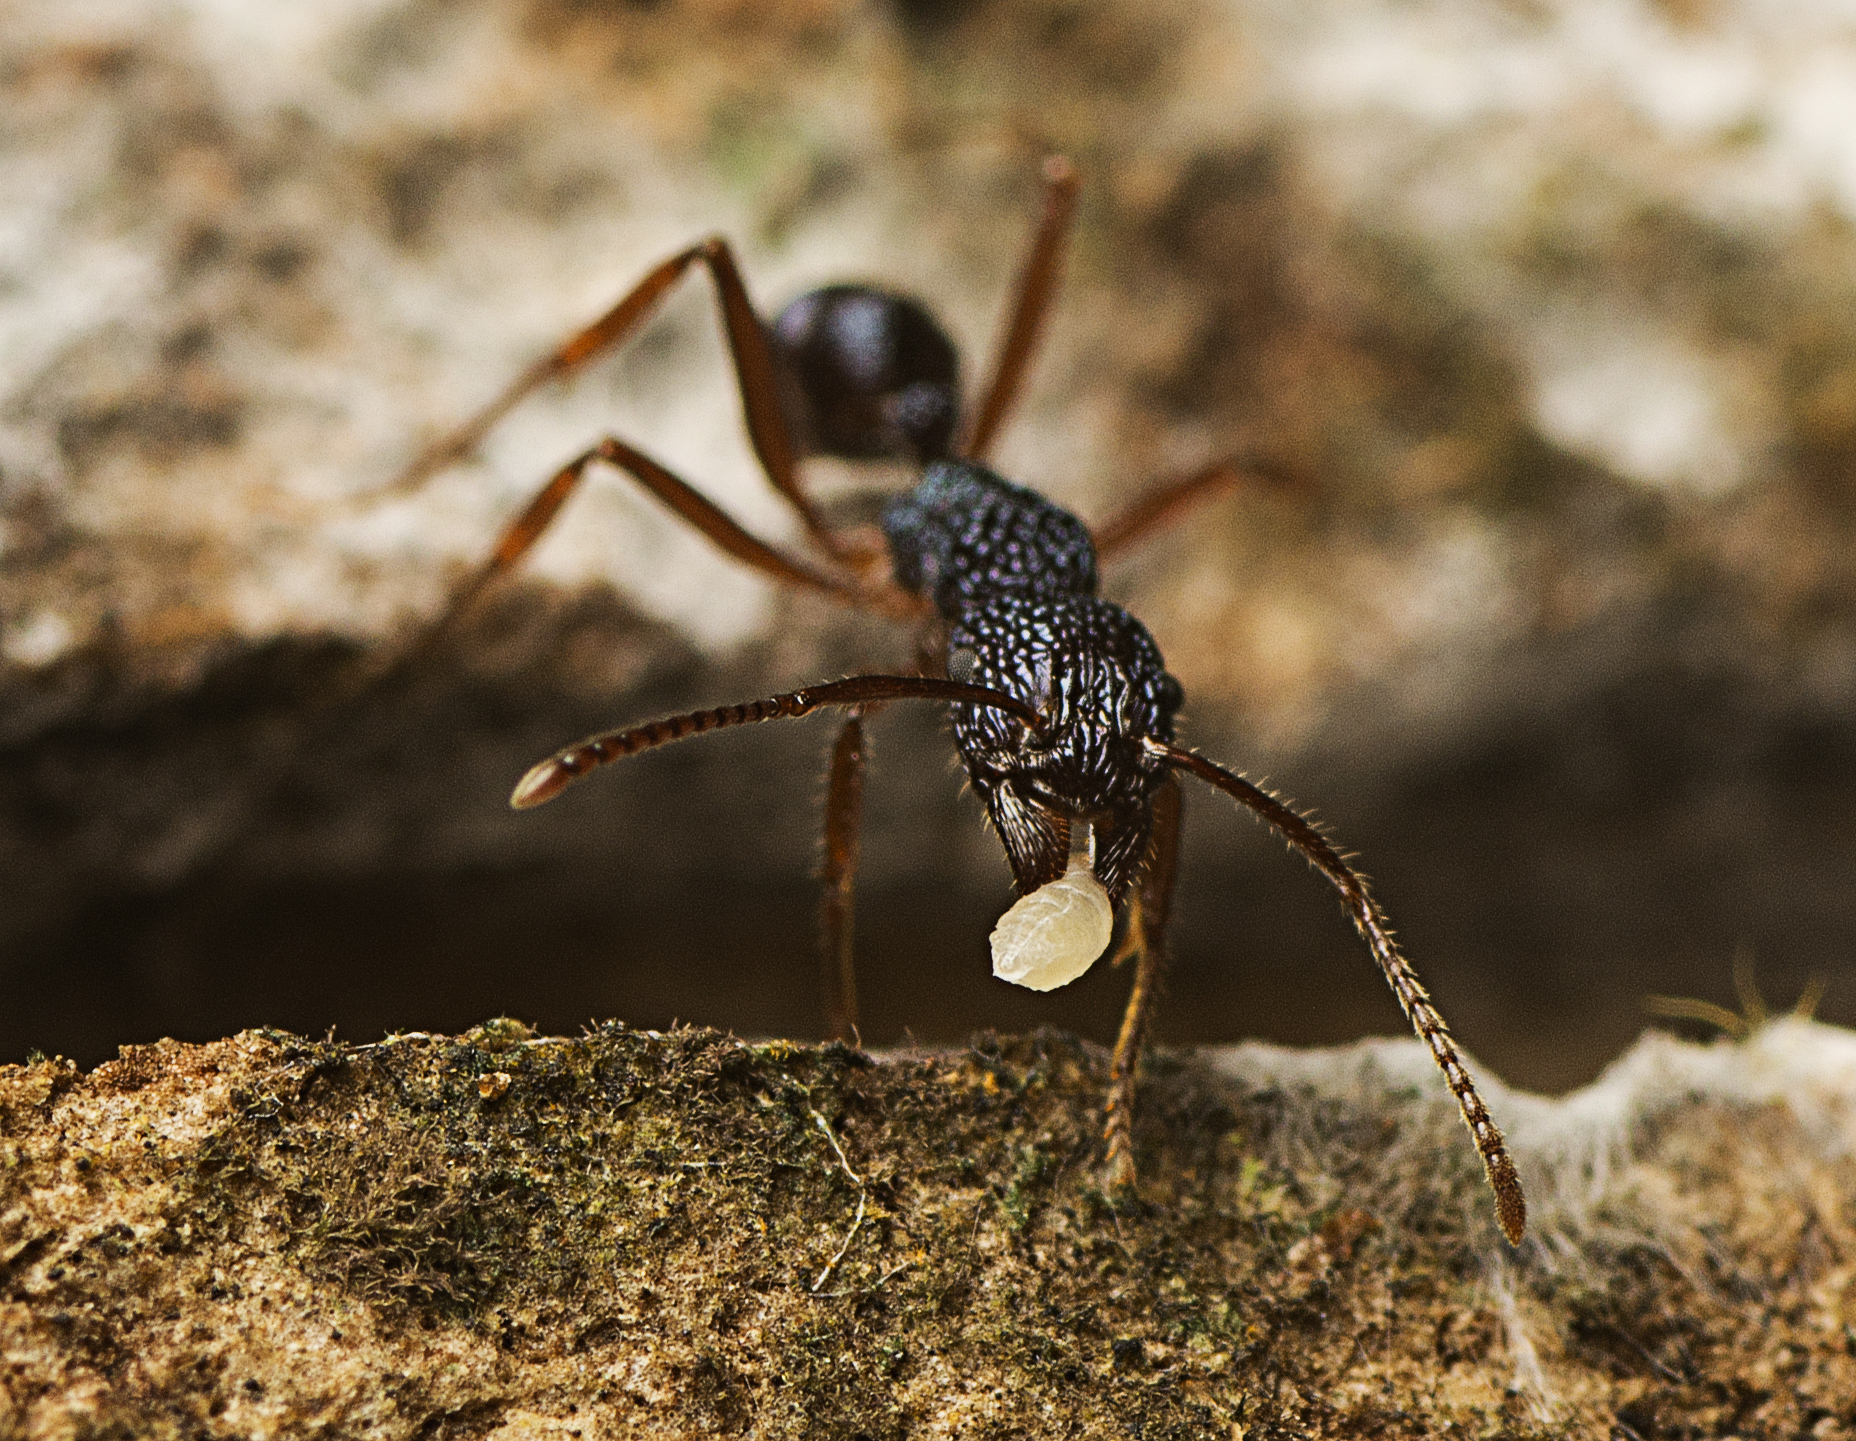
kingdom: Animalia
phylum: Arthropoda
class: Insecta
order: Hymenoptera
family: Formicidae
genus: Rhytidoponera
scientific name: Rhytidoponera chalybaea
